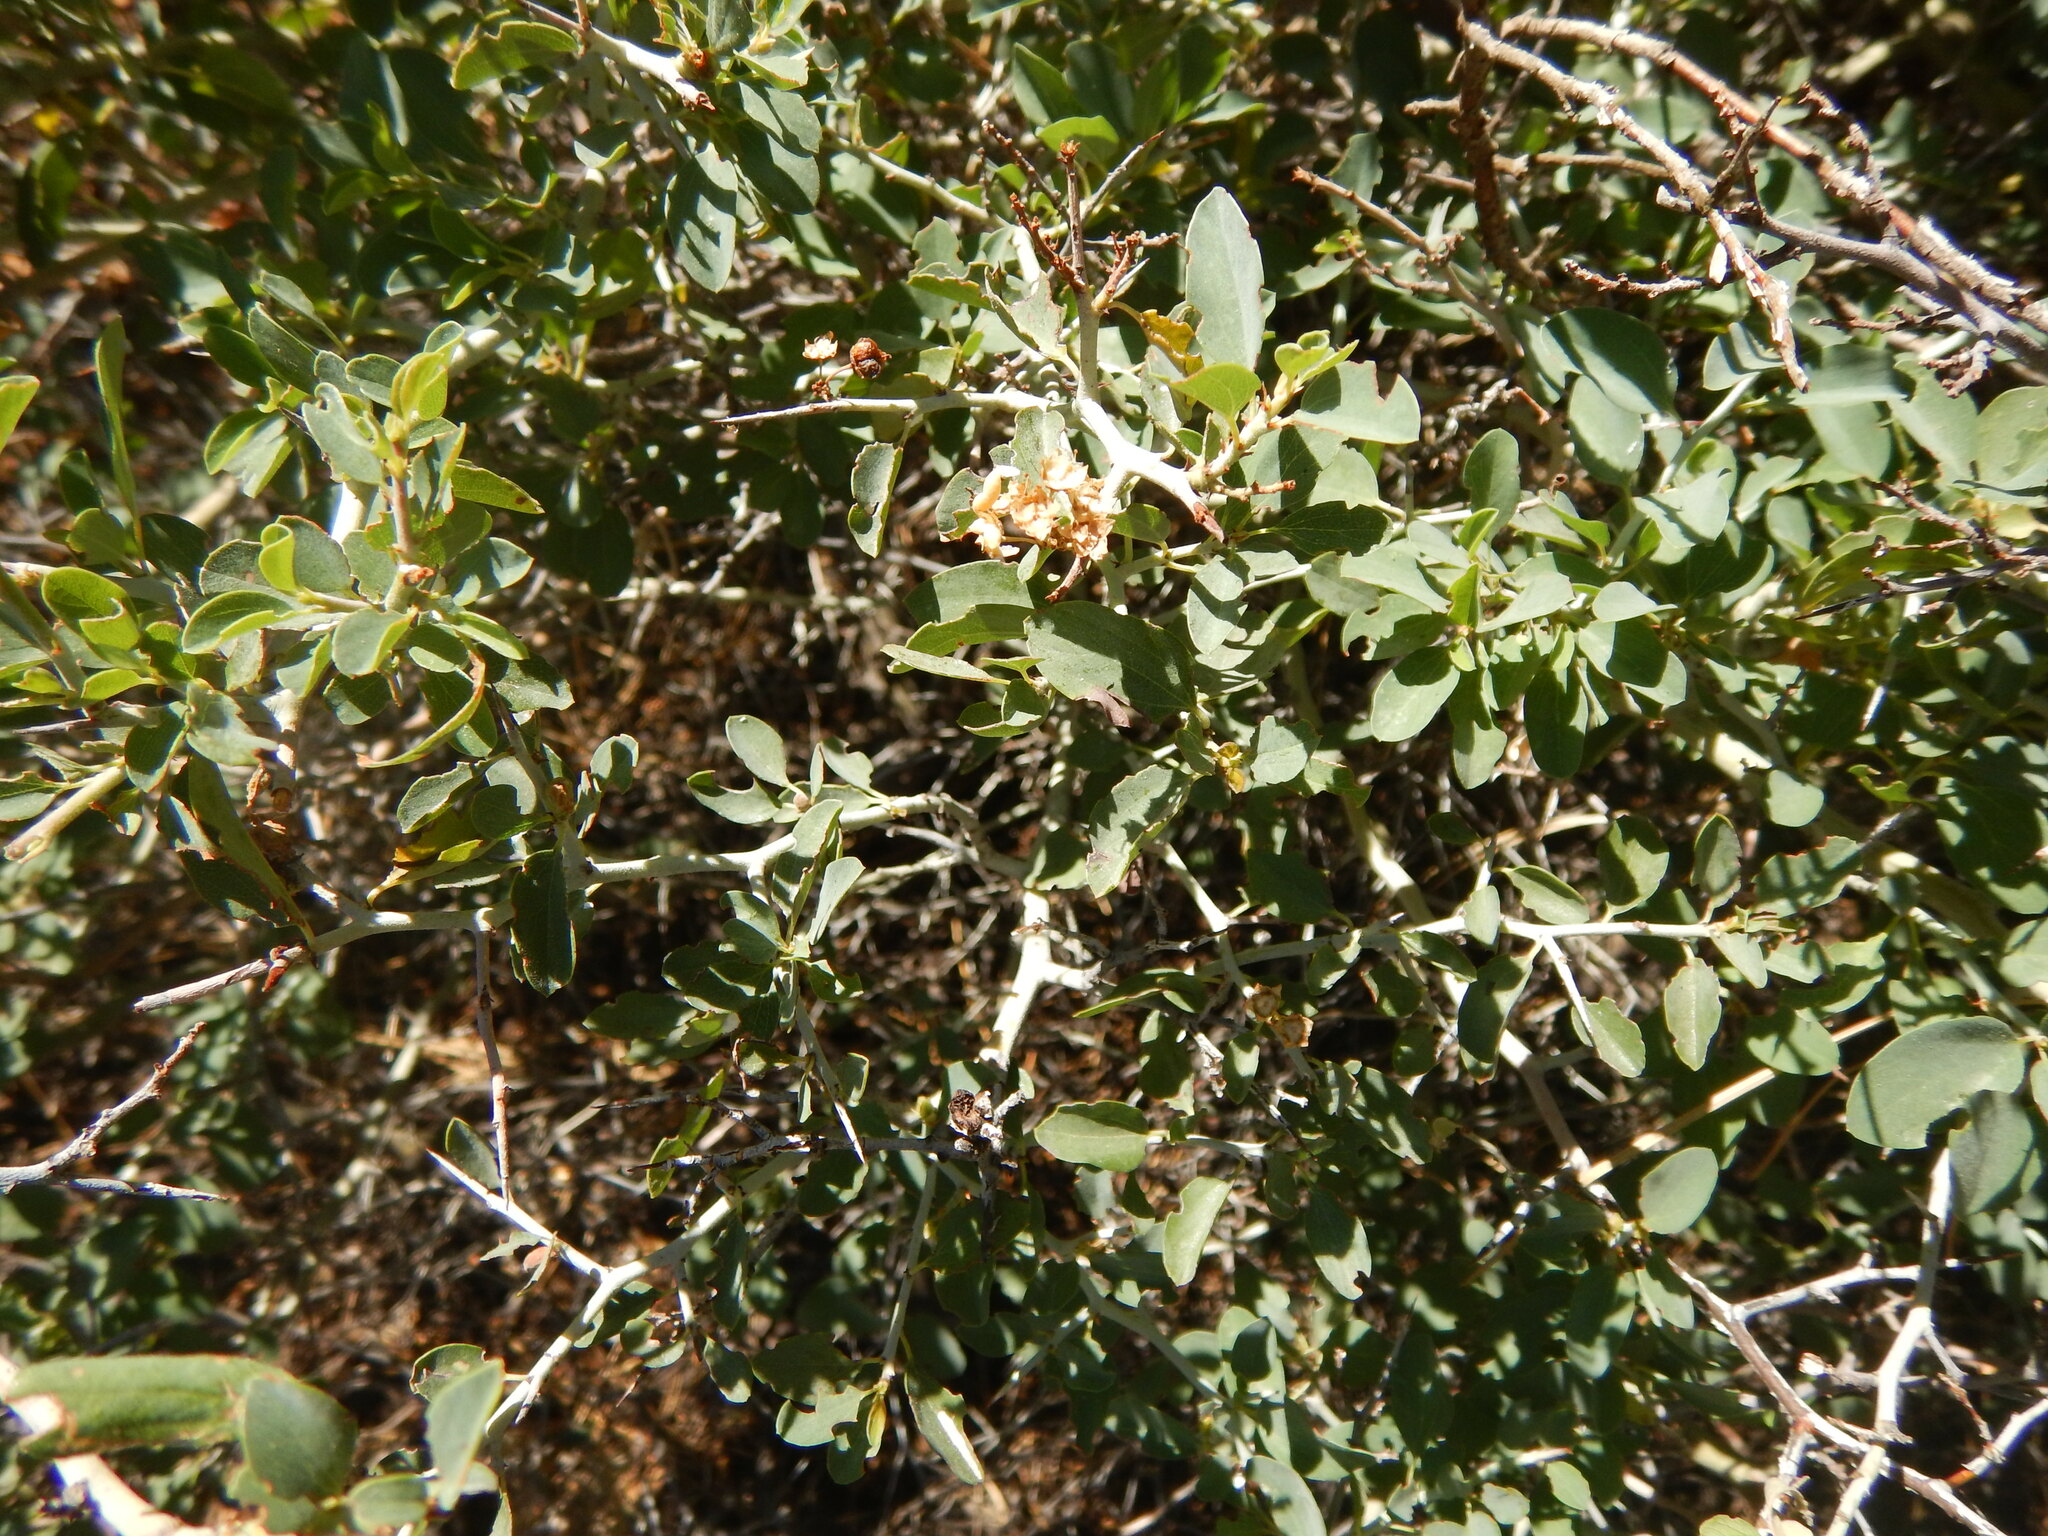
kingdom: Plantae
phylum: Tracheophyta
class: Magnoliopsida
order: Rosales
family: Rhamnaceae
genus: Ceanothus
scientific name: Ceanothus cordulatus
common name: Mountain whitethorn
